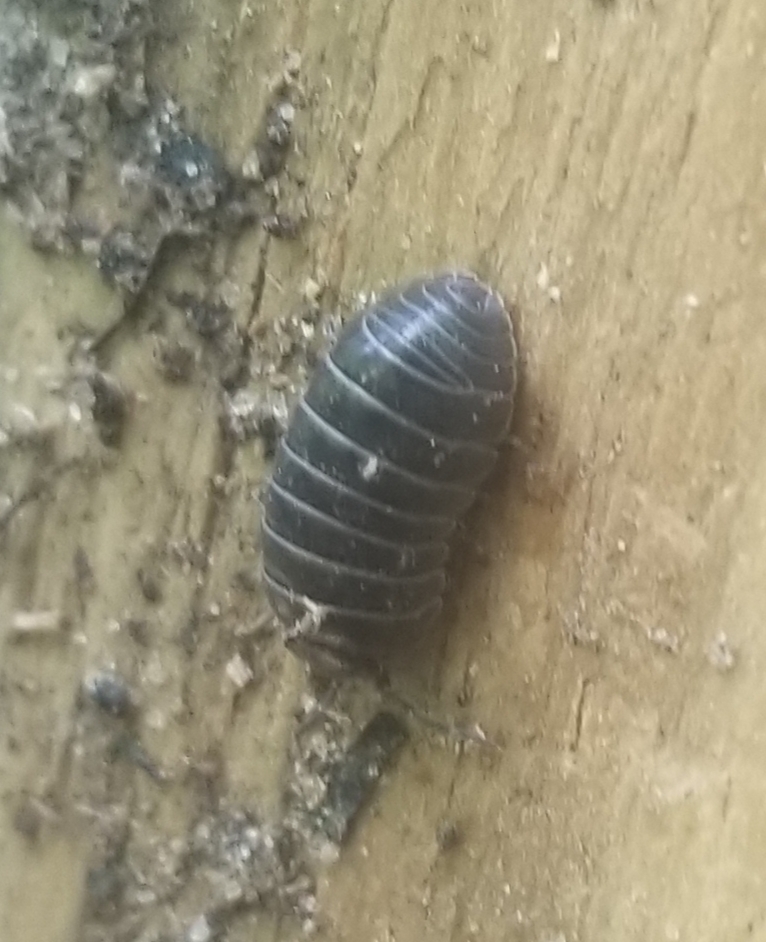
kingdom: Animalia
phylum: Arthropoda
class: Malacostraca
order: Isopoda
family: Armadillidiidae
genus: Armadillidium
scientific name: Armadillidium vulgare
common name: Common pill woodlouse
